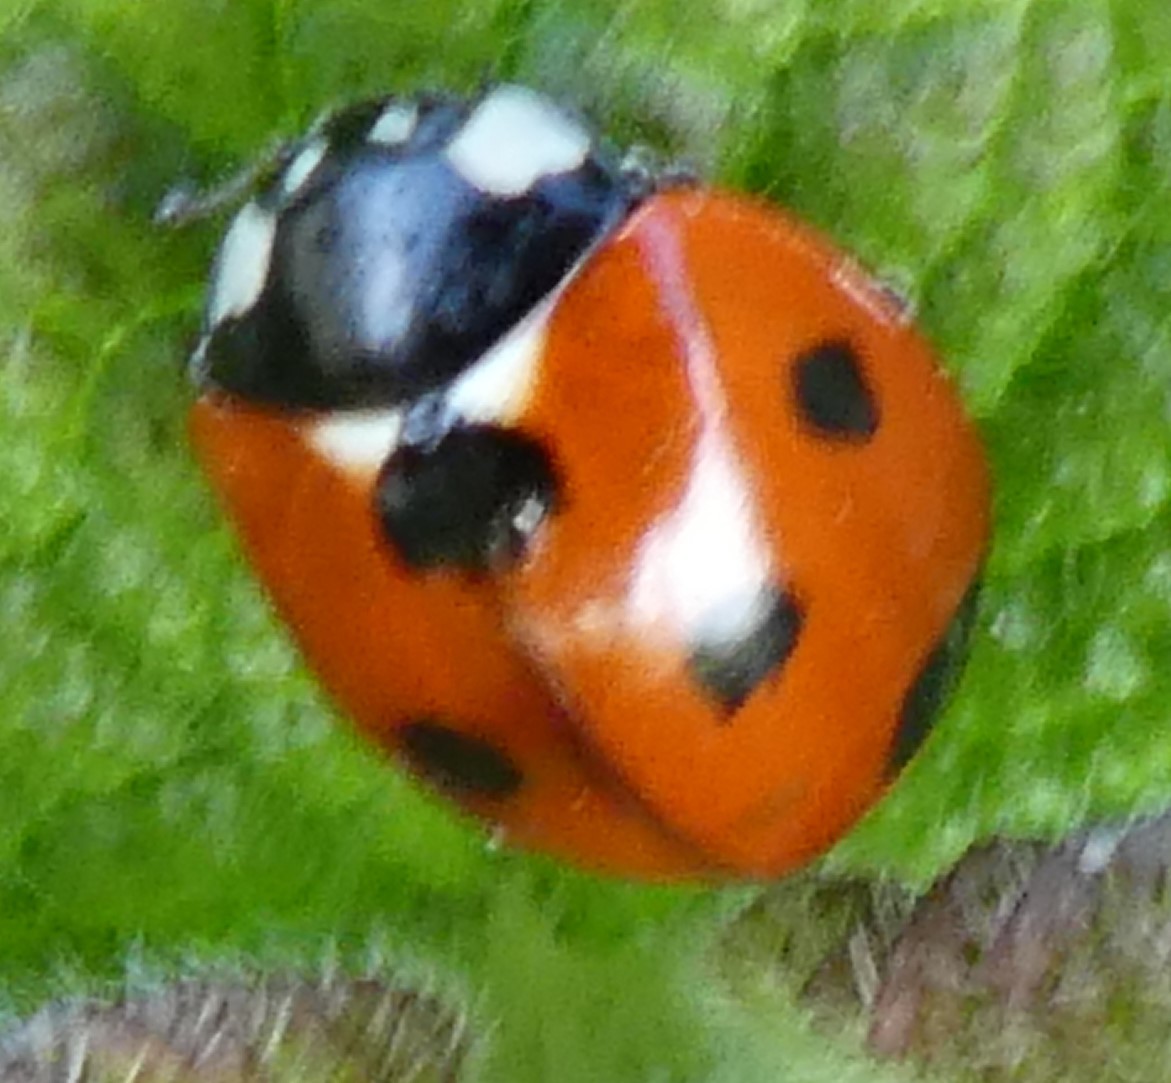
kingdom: Animalia
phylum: Arthropoda
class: Insecta
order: Coleoptera
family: Coccinellidae
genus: Coccinella
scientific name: Coccinella septempunctata
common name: Sevenspotted lady beetle
